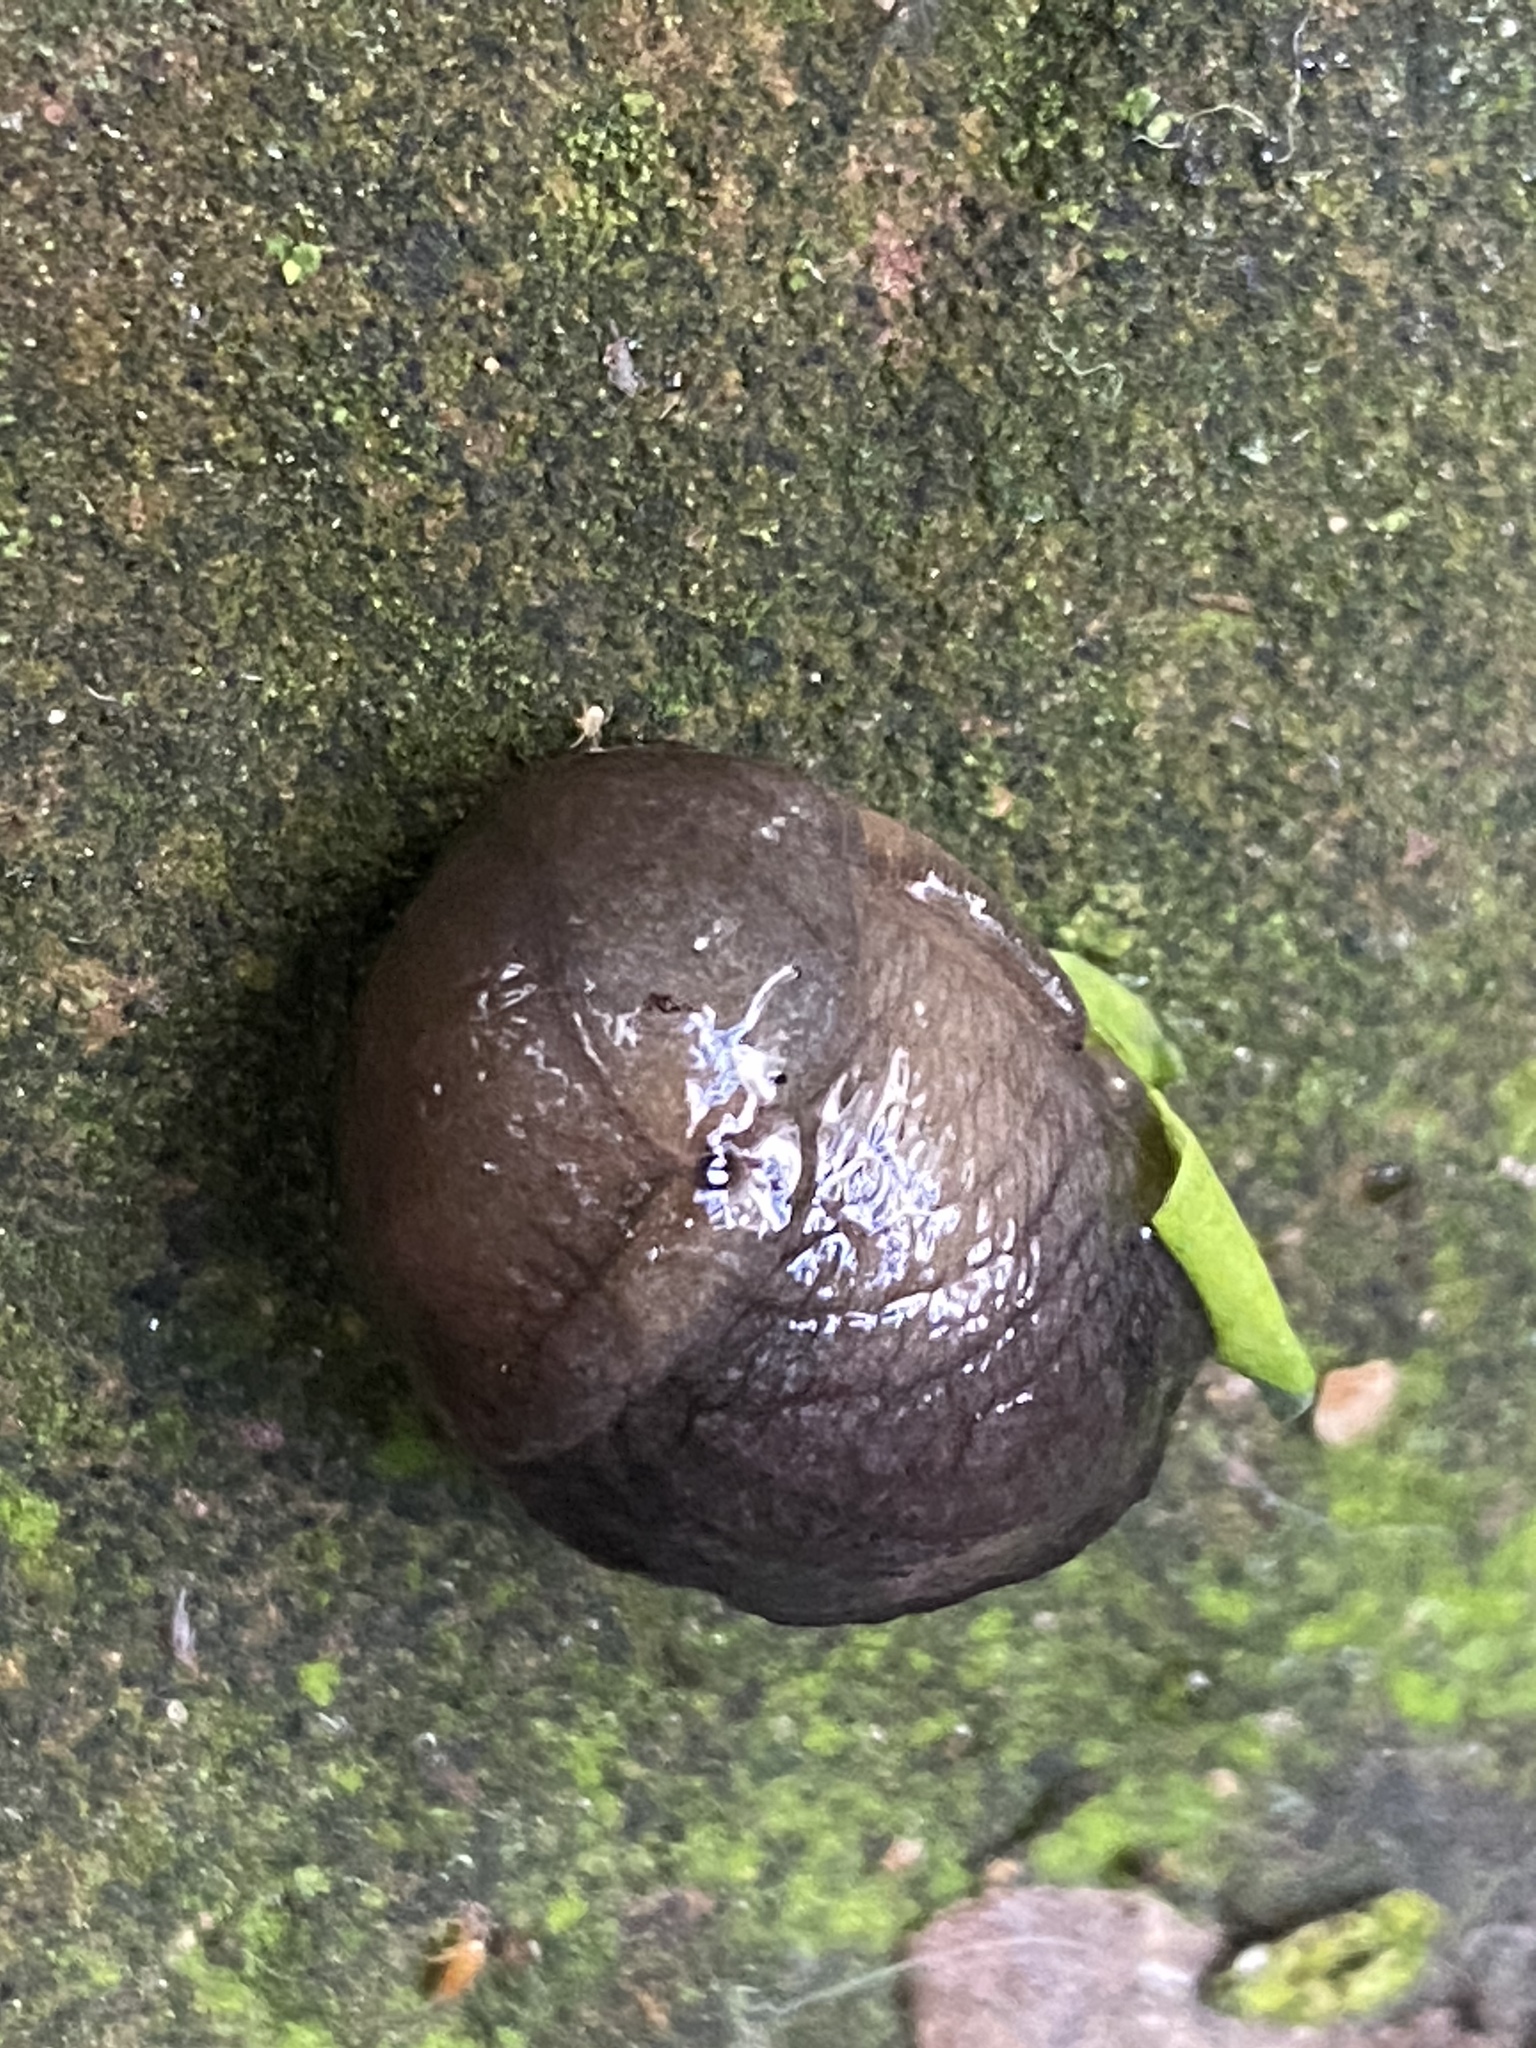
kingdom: Animalia
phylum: Mollusca
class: Gastropoda
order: Stylommatophora
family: Milacidae
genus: Milax
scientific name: Milax gagates
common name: Greenhouse slug
